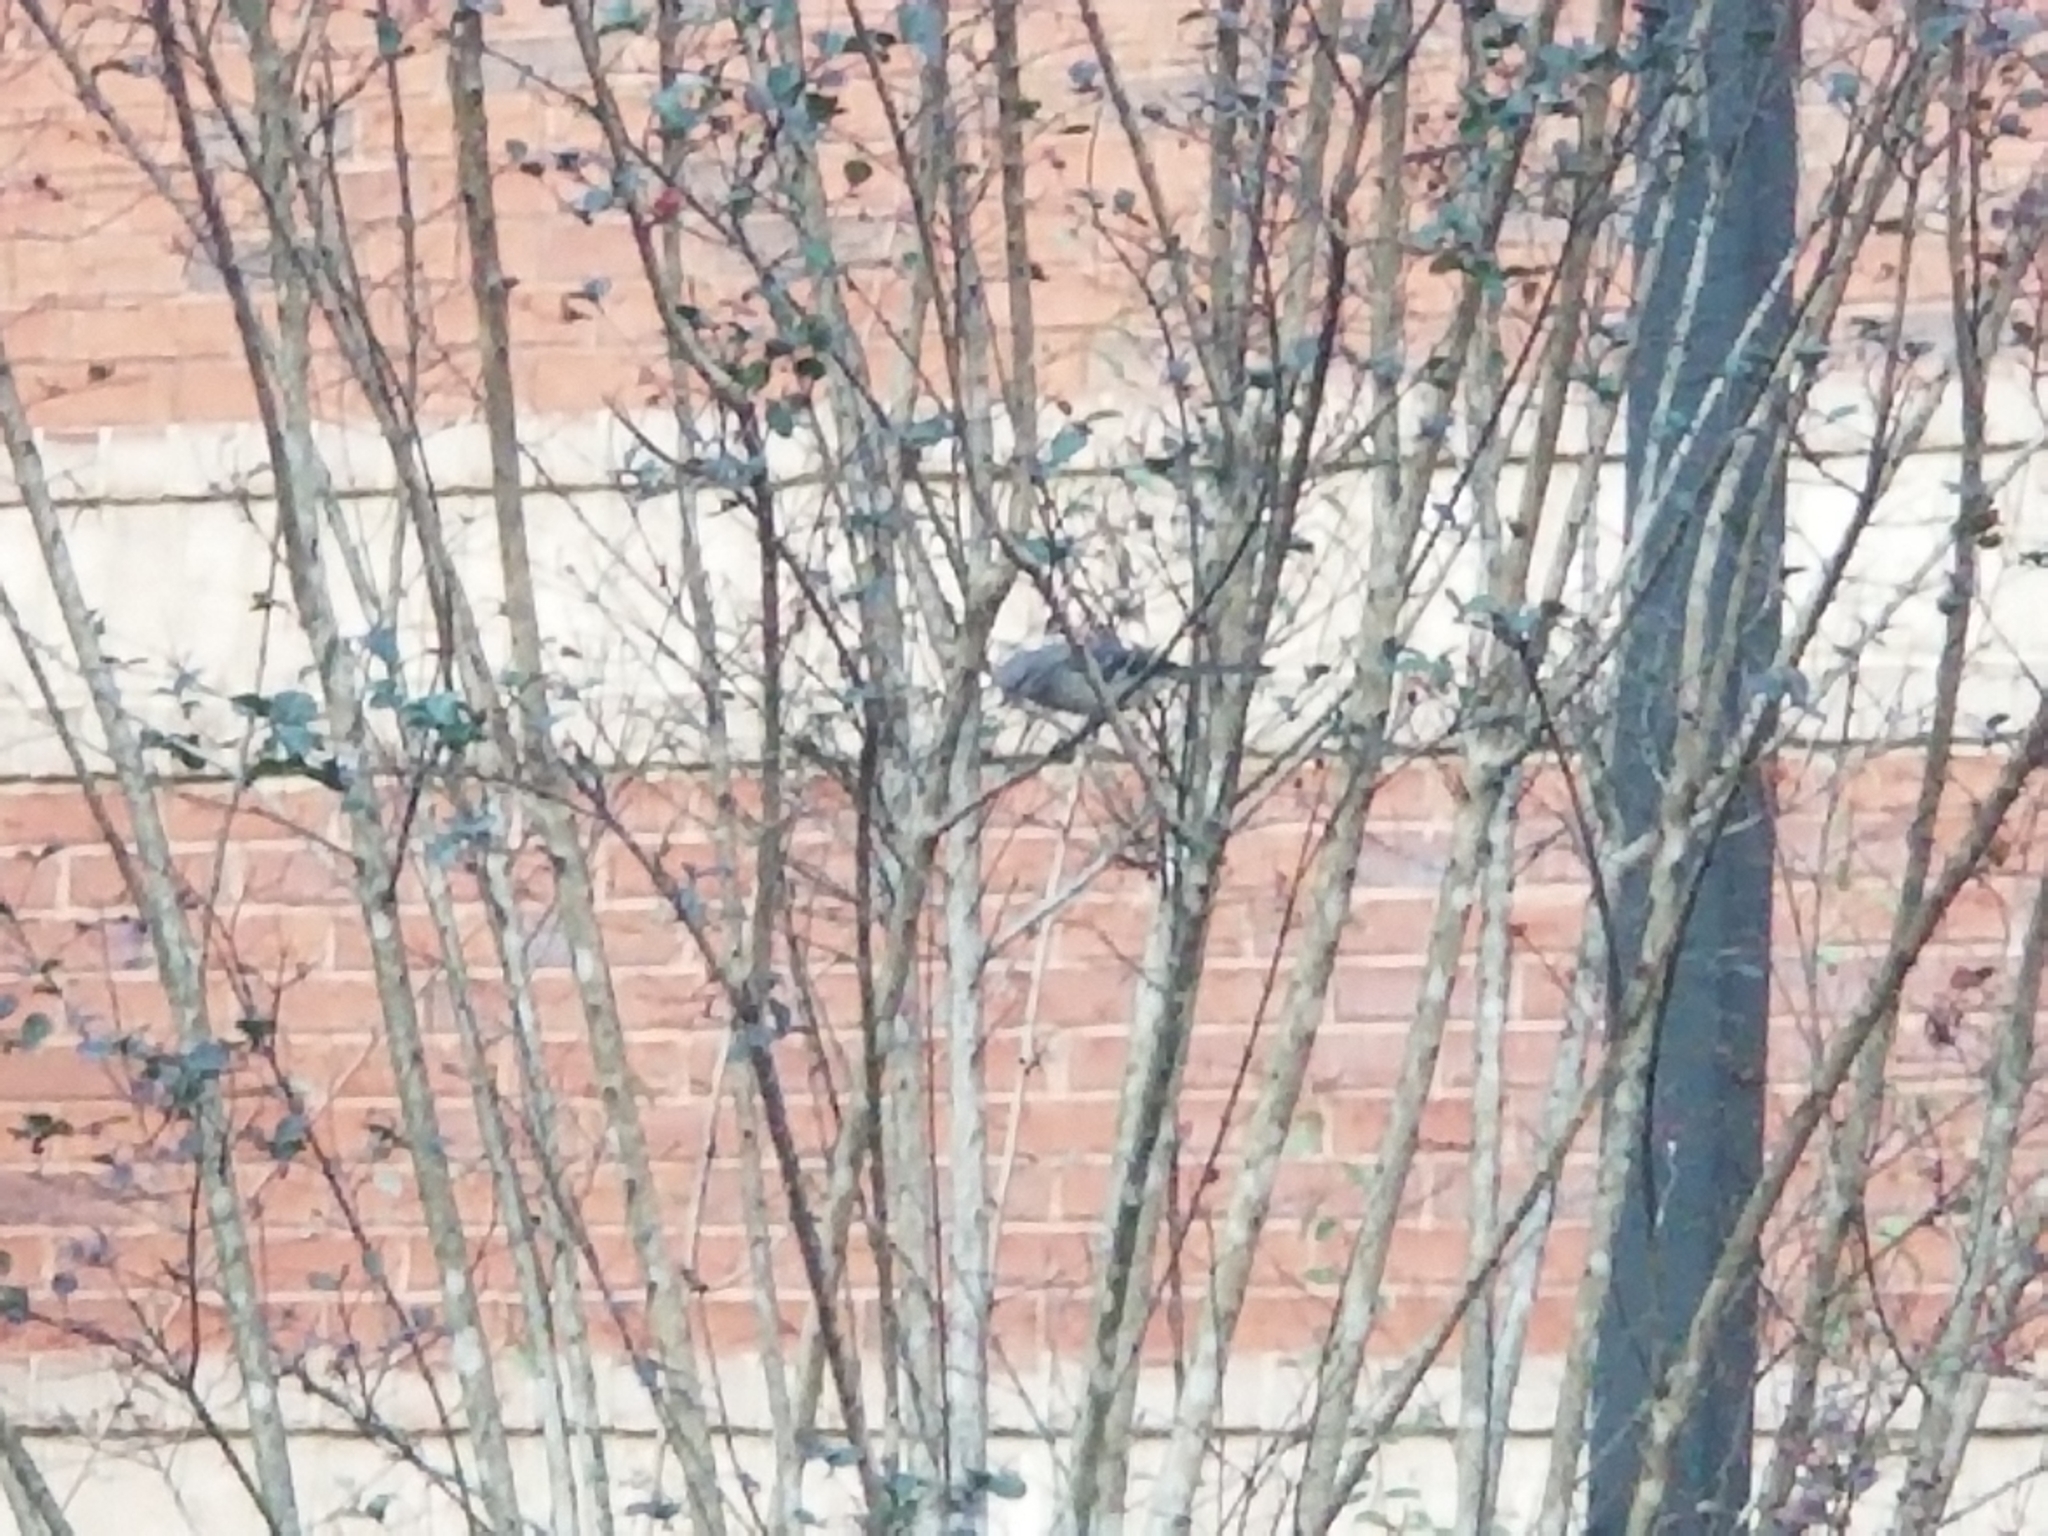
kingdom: Animalia
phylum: Chordata
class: Aves
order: Passeriformes
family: Mimidae
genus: Mimus
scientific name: Mimus polyglottos
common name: Northern mockingbird
